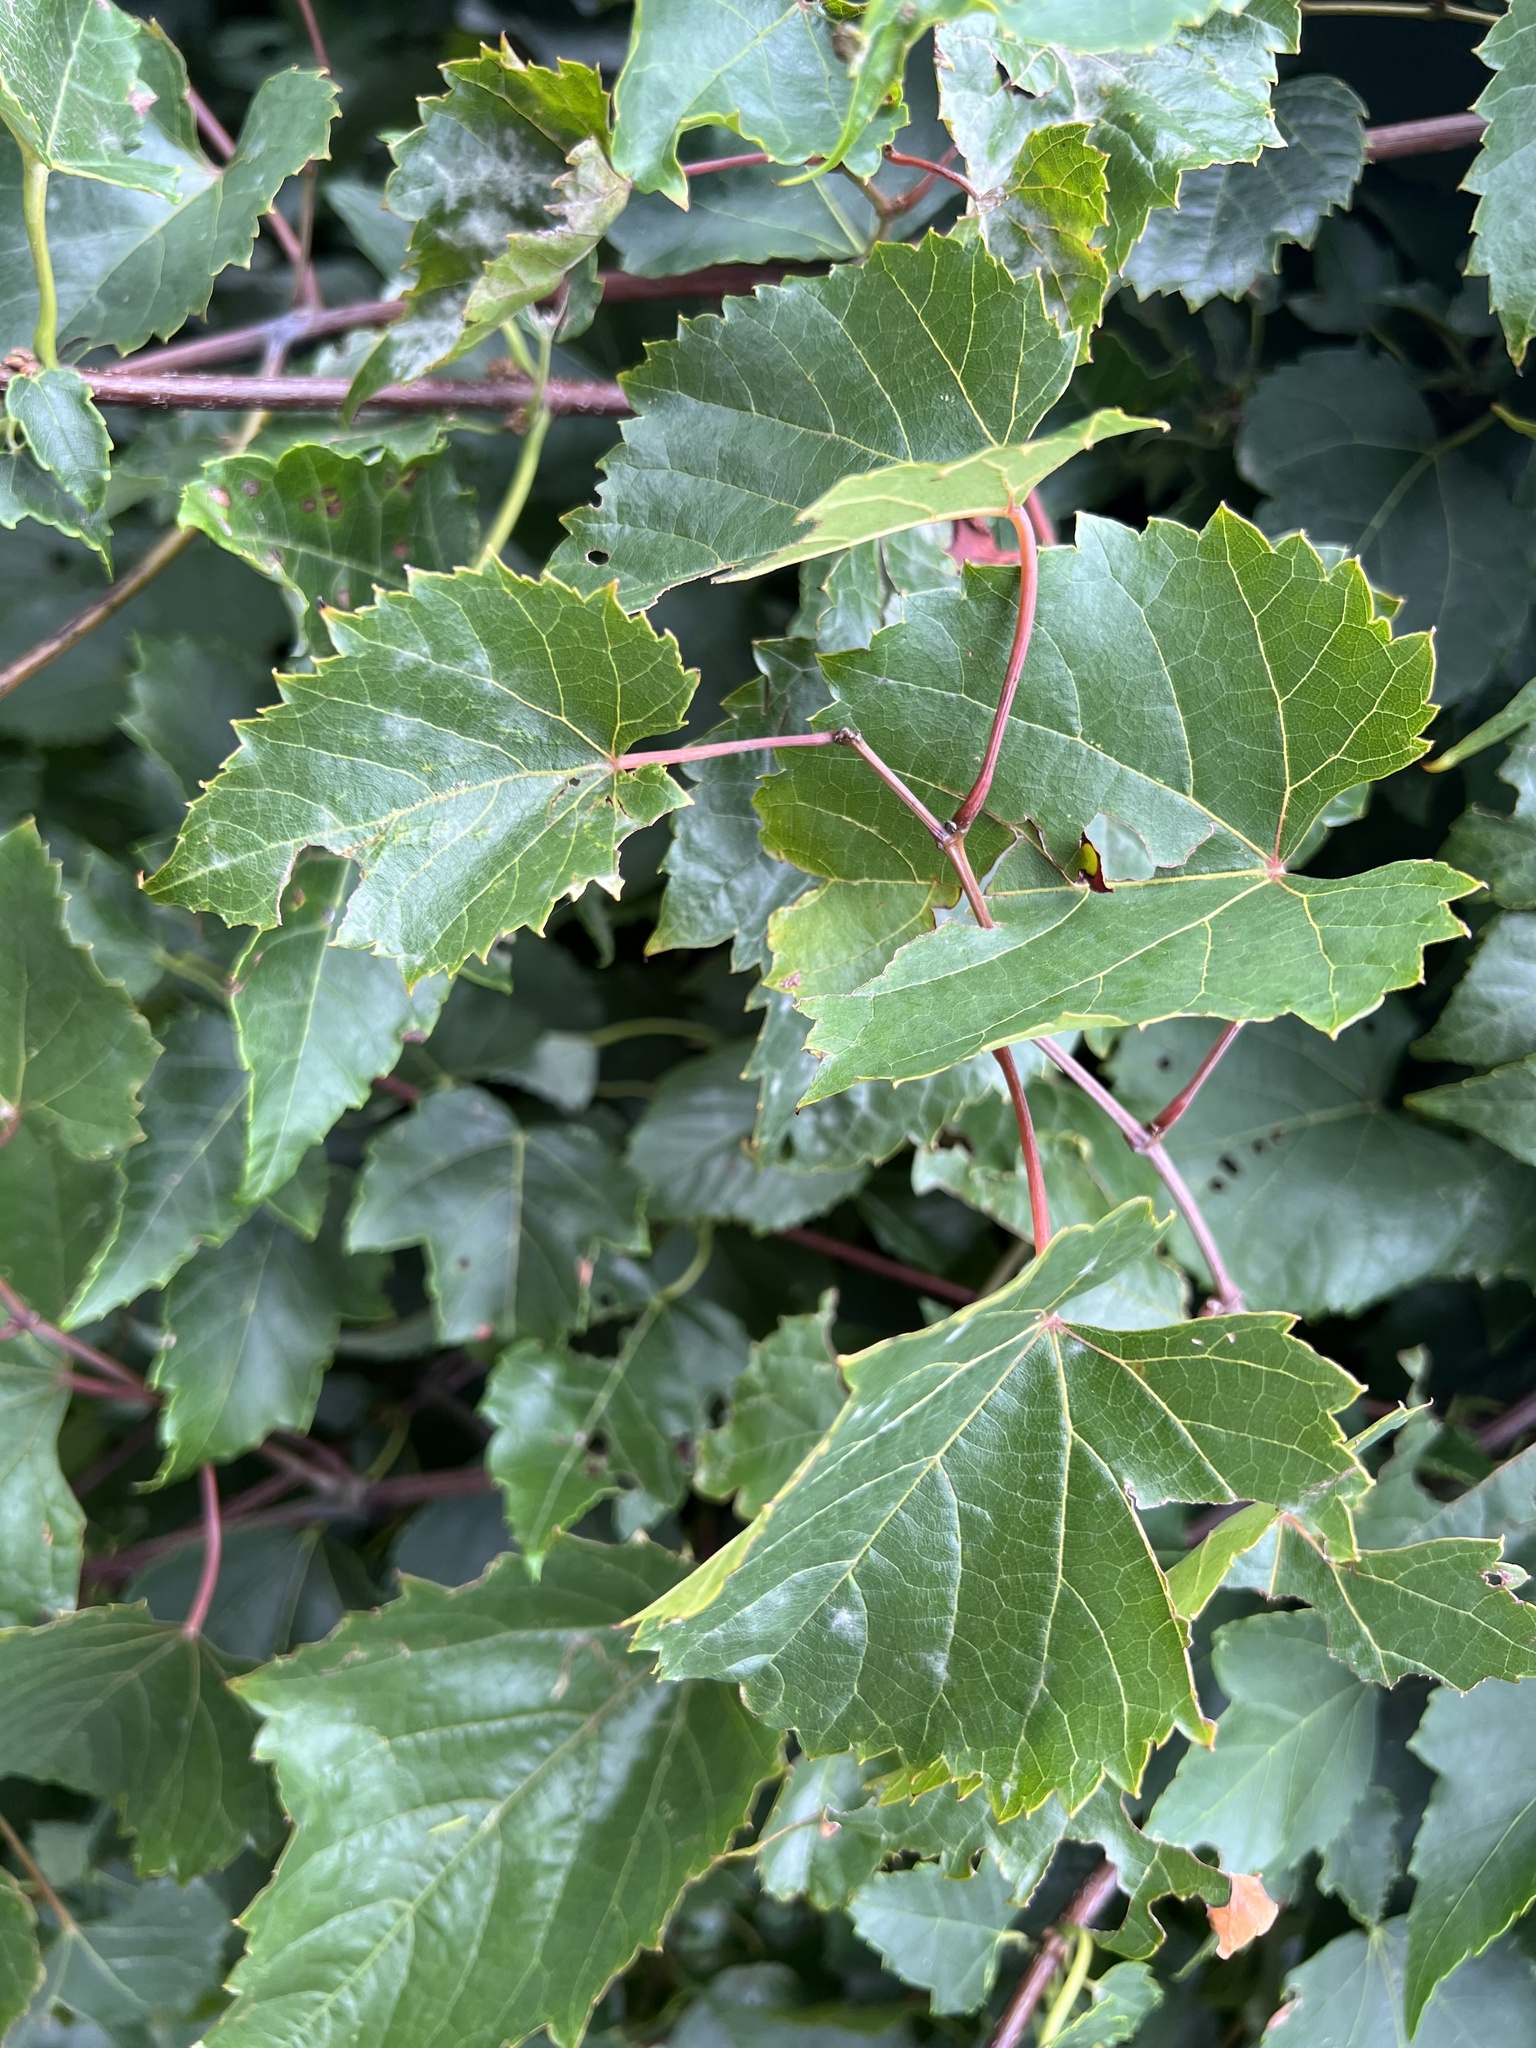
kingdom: Fungi
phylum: Ascomycota
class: Leotiomycetes
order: Helotiales
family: Erysiphaceae
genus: Erysiphe
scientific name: Erysiphe necator
